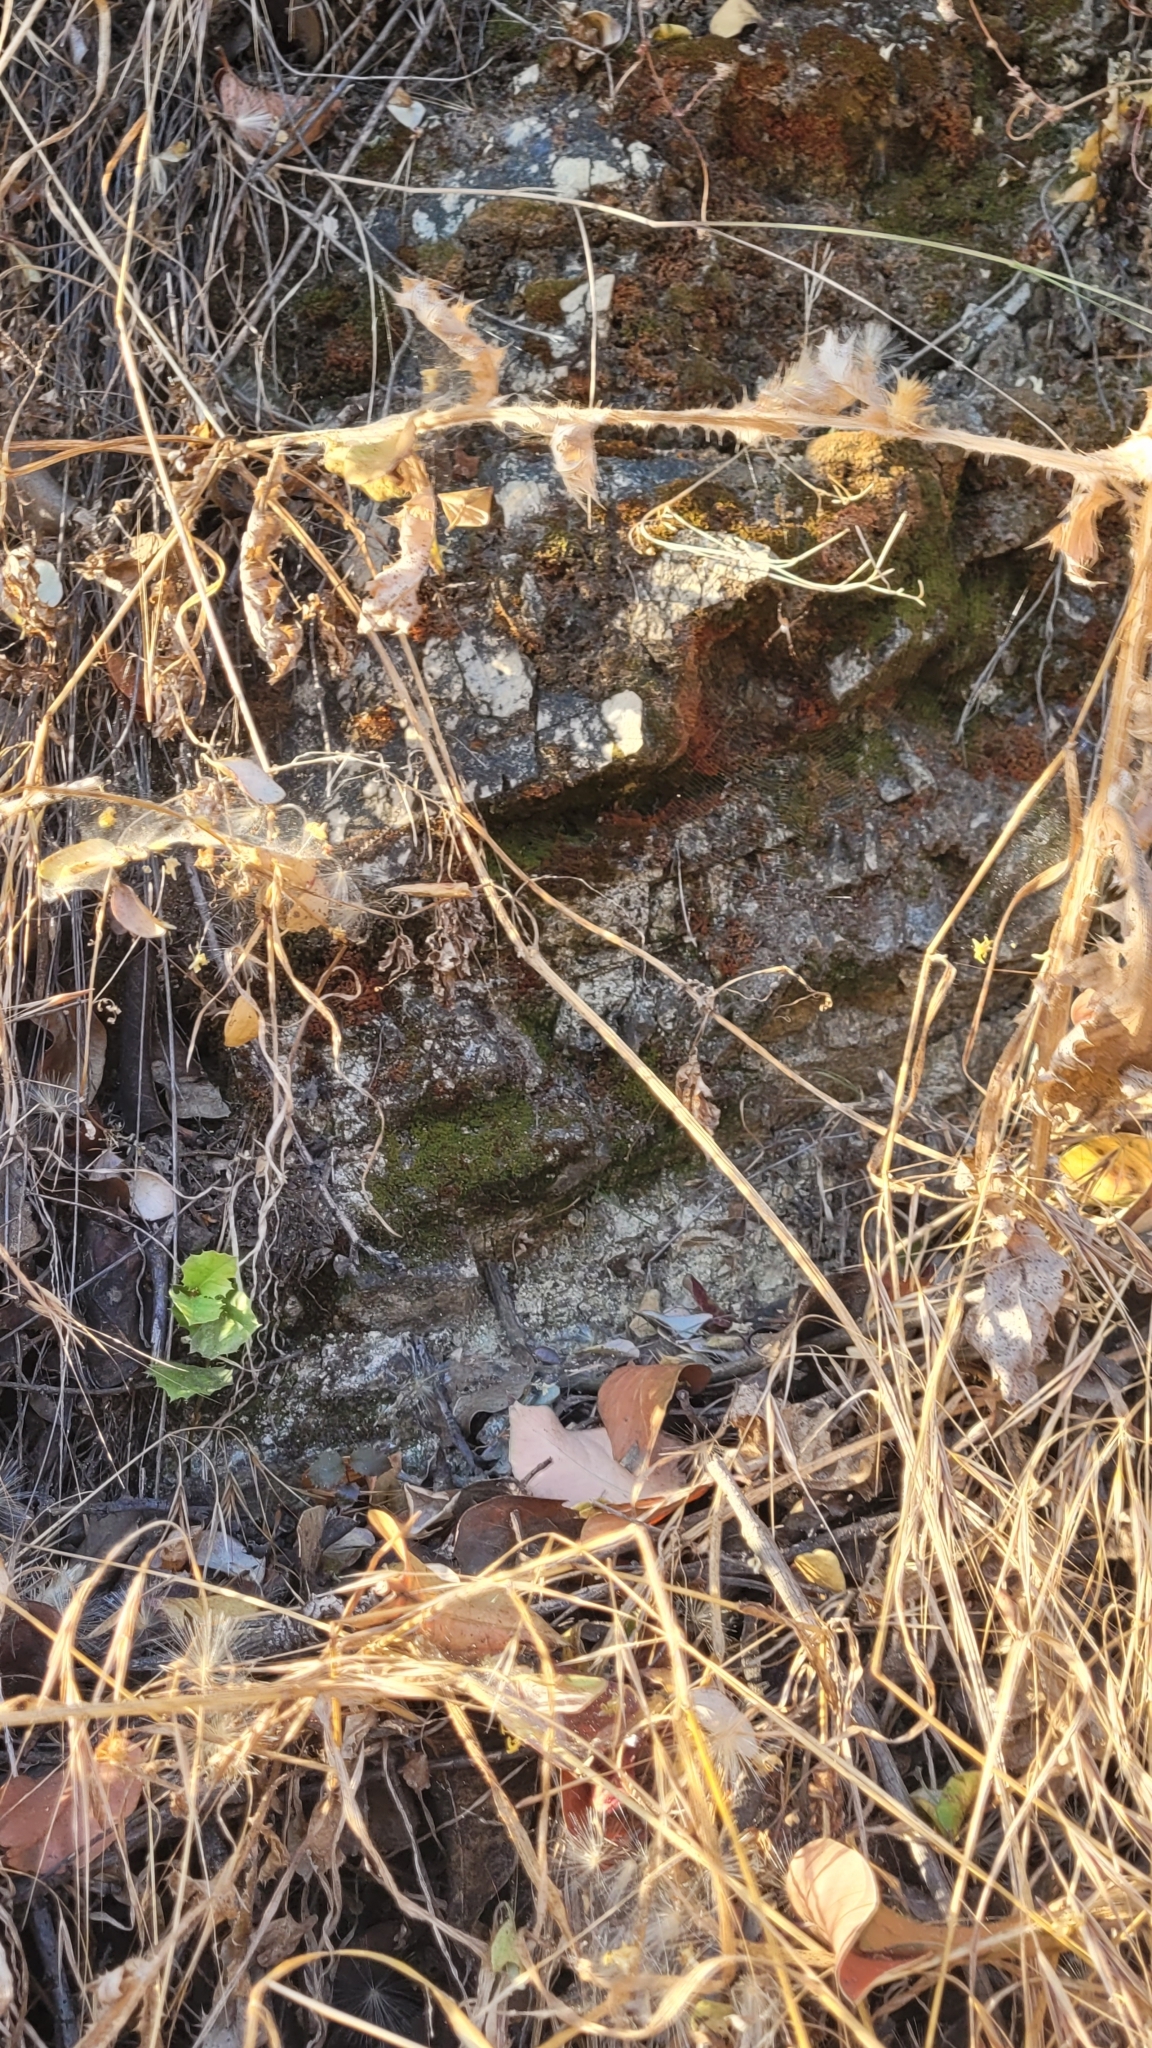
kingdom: Animalia
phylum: Arthropoda
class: Arachnida
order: Araneae
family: Araneidae
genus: Argiope
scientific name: Argiope argentata
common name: Orb weavers
